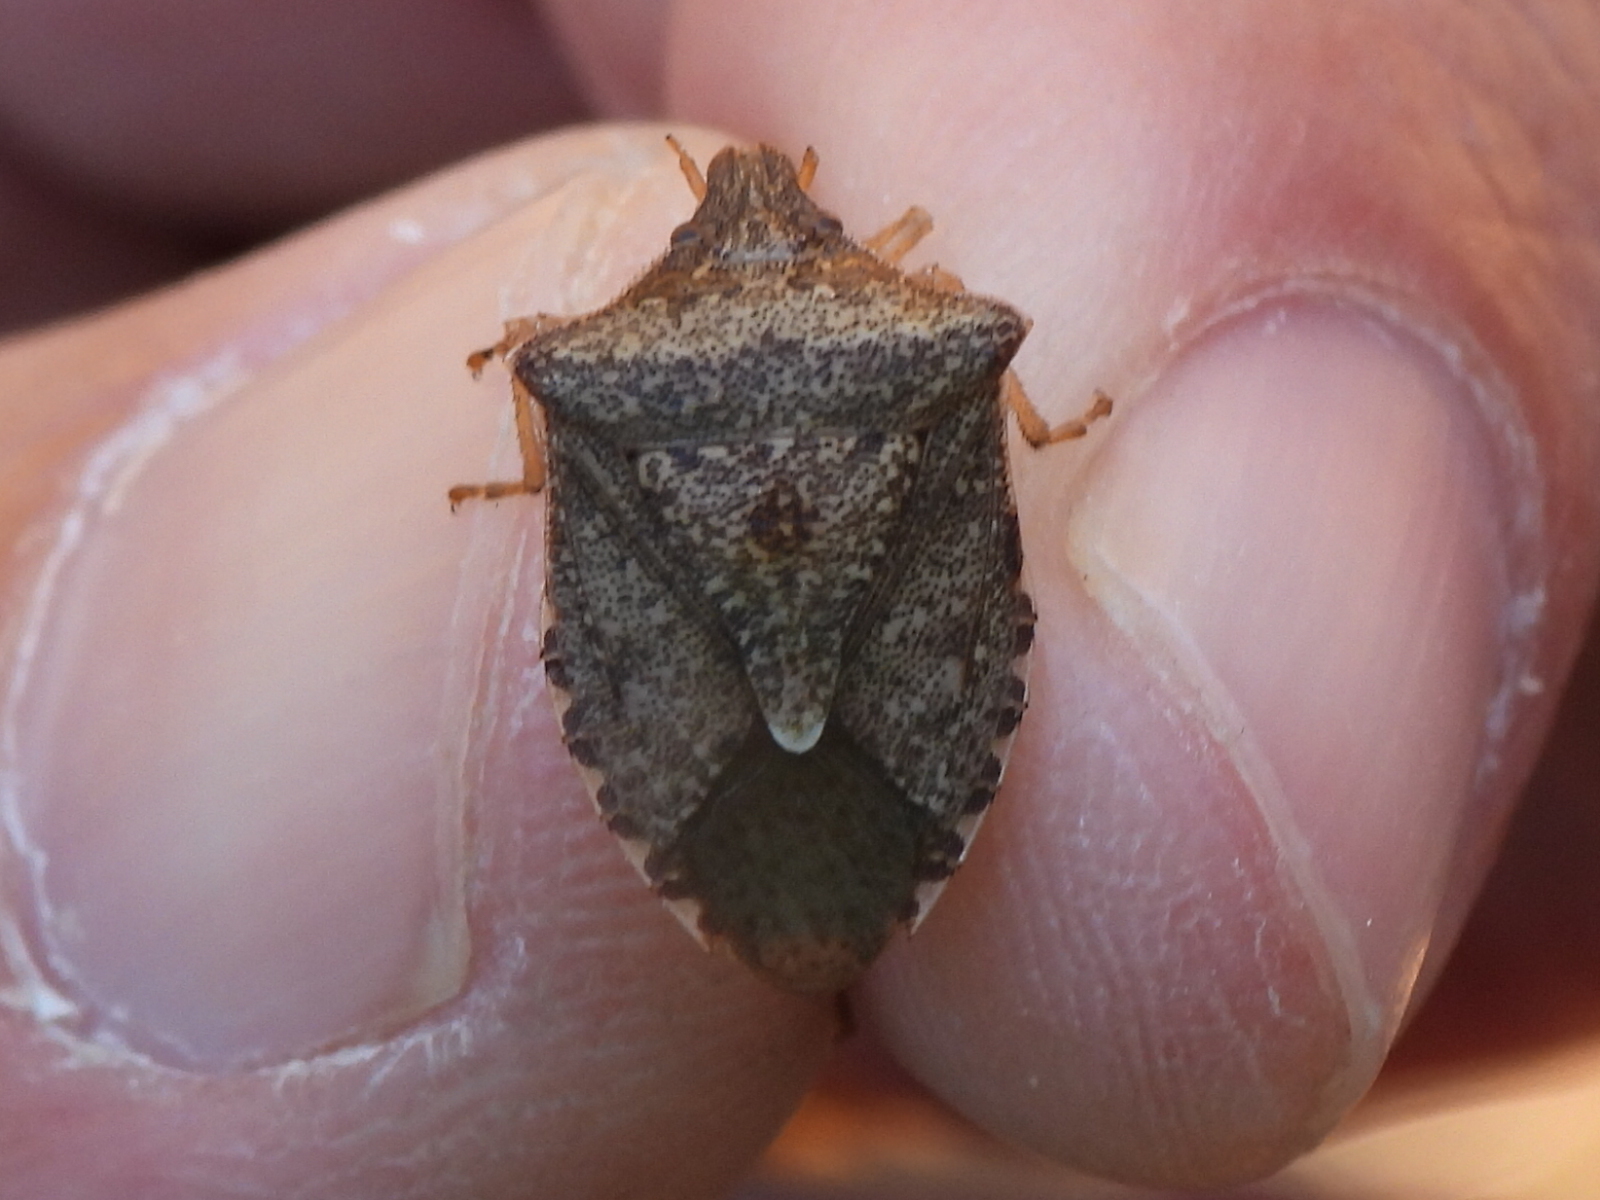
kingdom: Animalia
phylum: Arthropoda
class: Insecta
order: Hemiptera
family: Pentatomidae
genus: Euschistus
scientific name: Euschistus servus
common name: Brown stink bug
